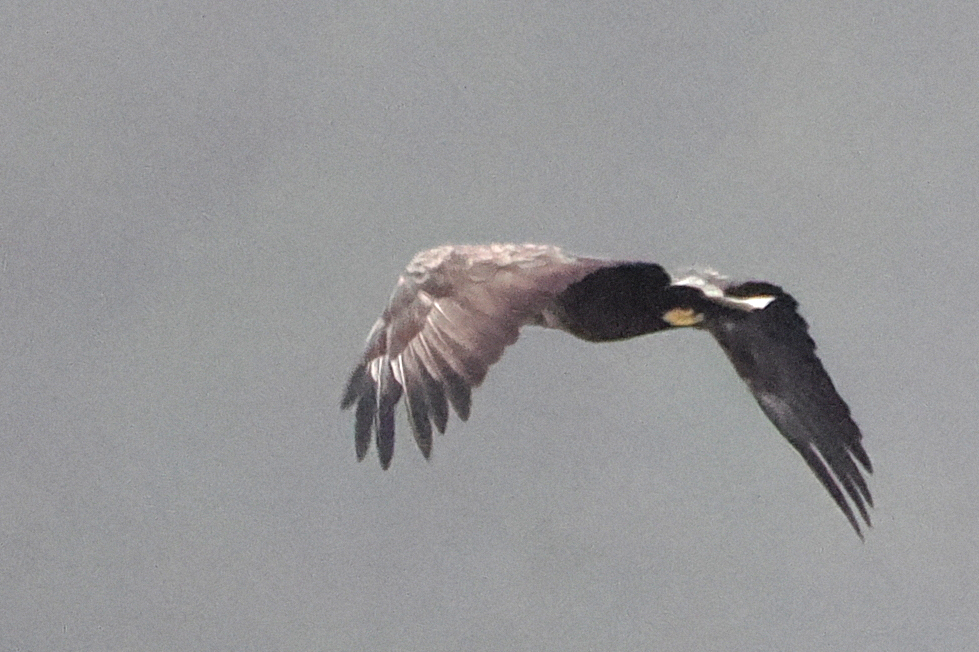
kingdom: Animalia
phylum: Chordata
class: Aves
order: Accipitriformes
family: Accipitridae
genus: Haliaeetus
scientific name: Haliaeetus albicilla
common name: White-tailed eagle
